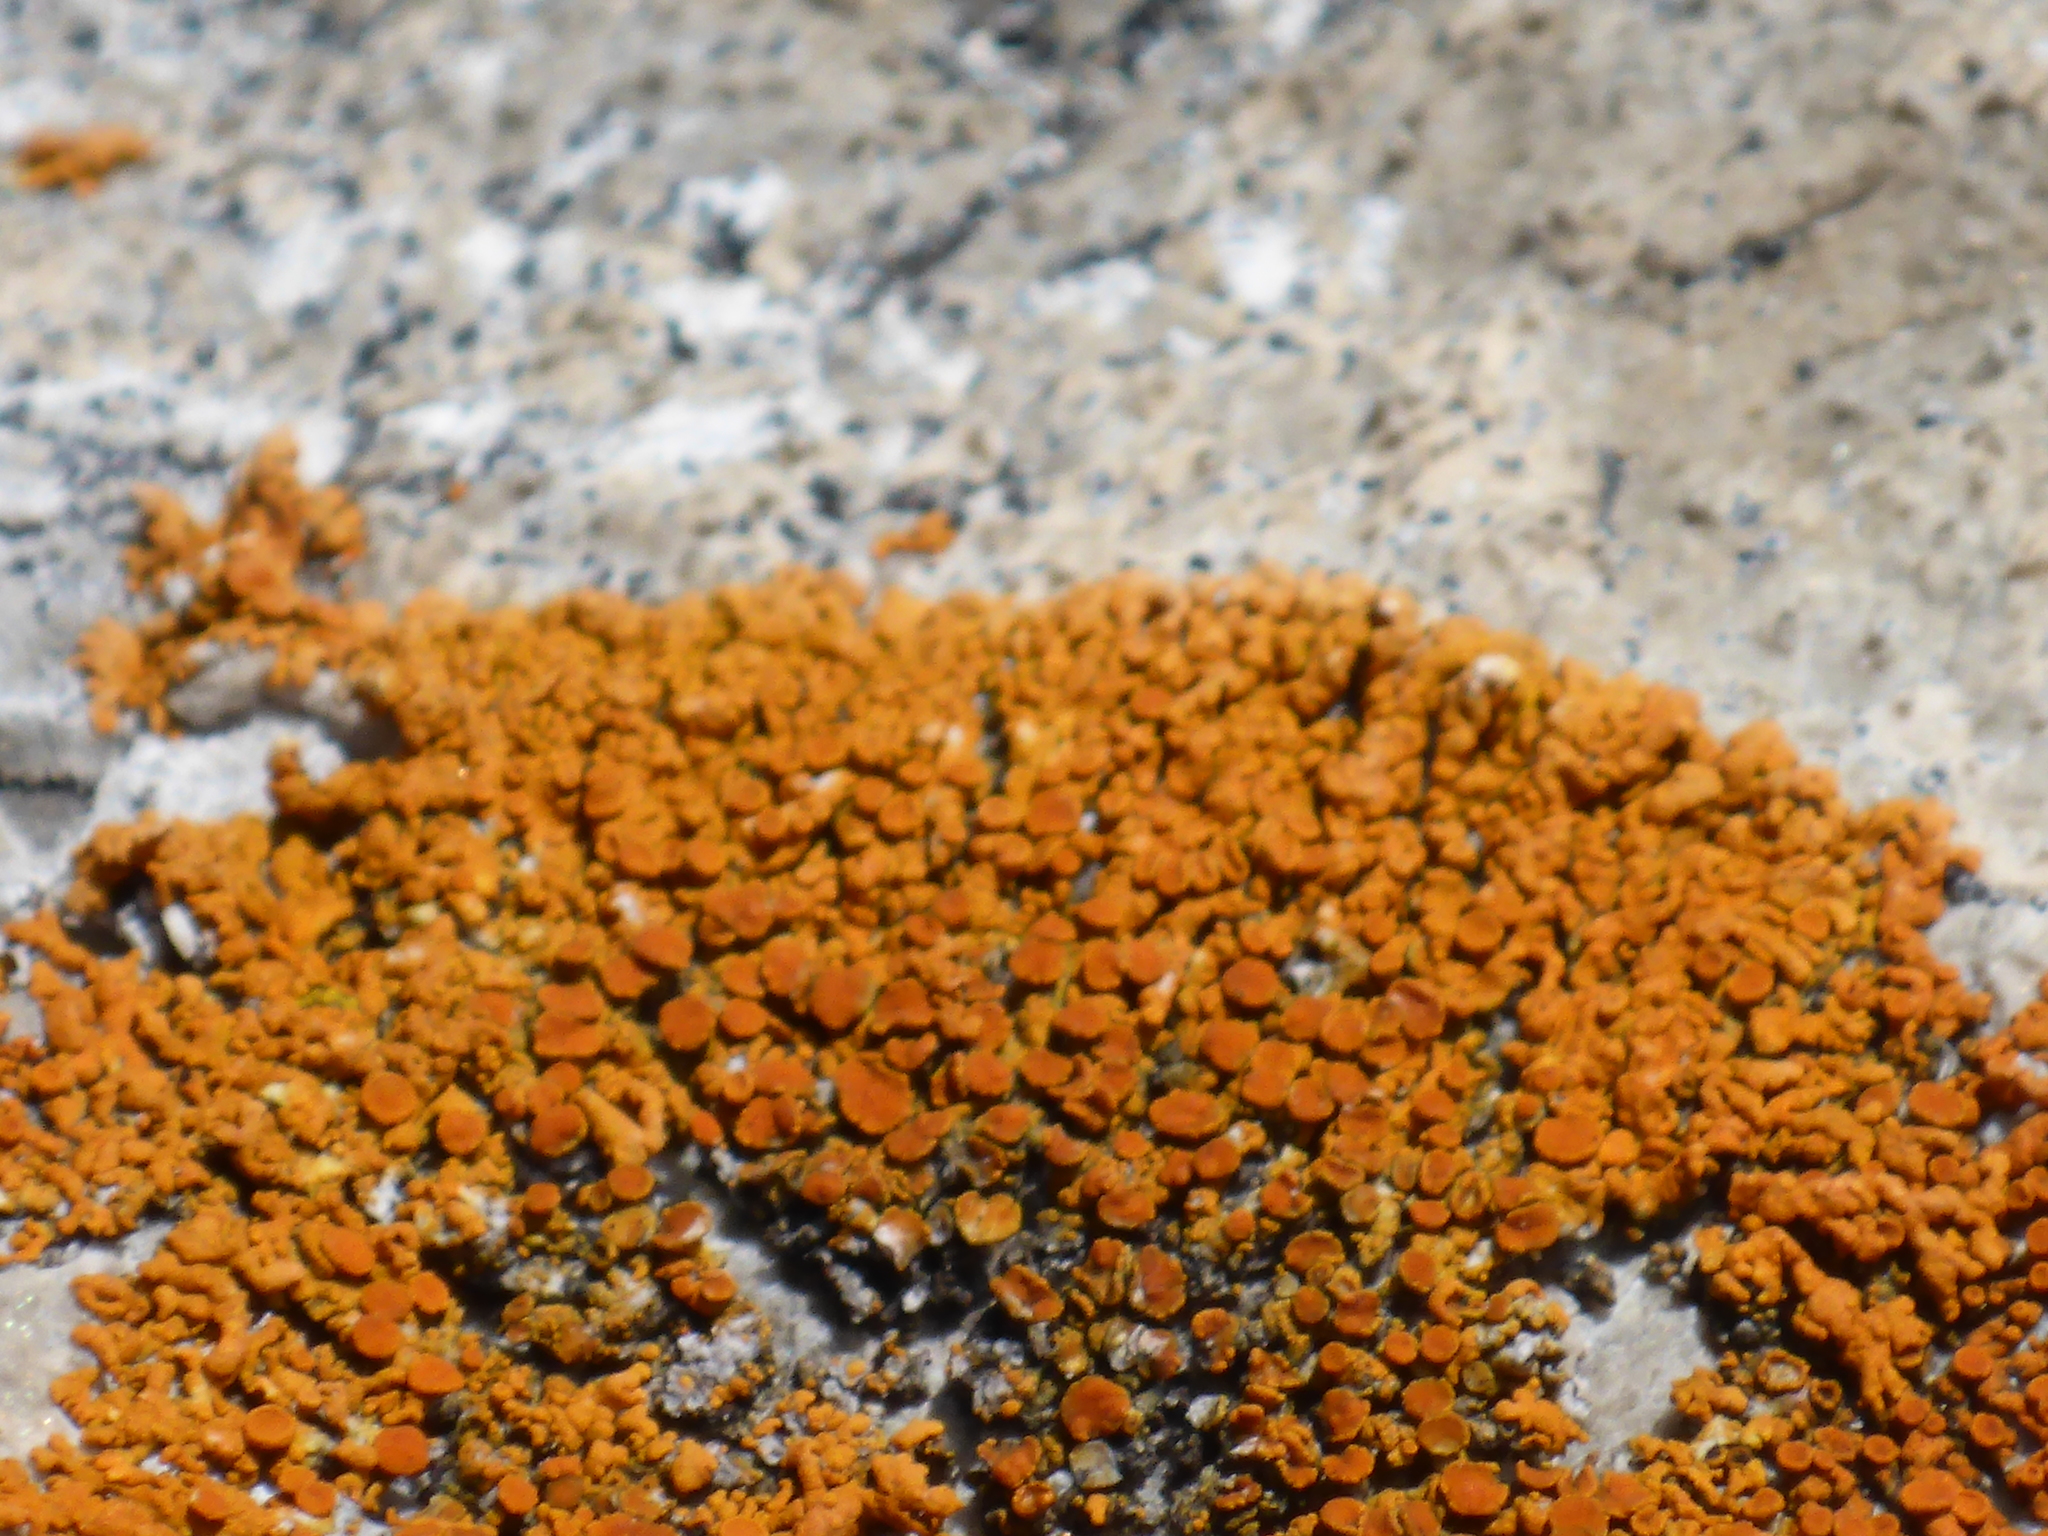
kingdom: Fungi
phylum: Ascomycota
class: Lecanoromycetes
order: Teloschistales
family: Teloschistaceae
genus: Xanthoria
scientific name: Xanthoria elegans
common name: Elegant sunburst lichen
